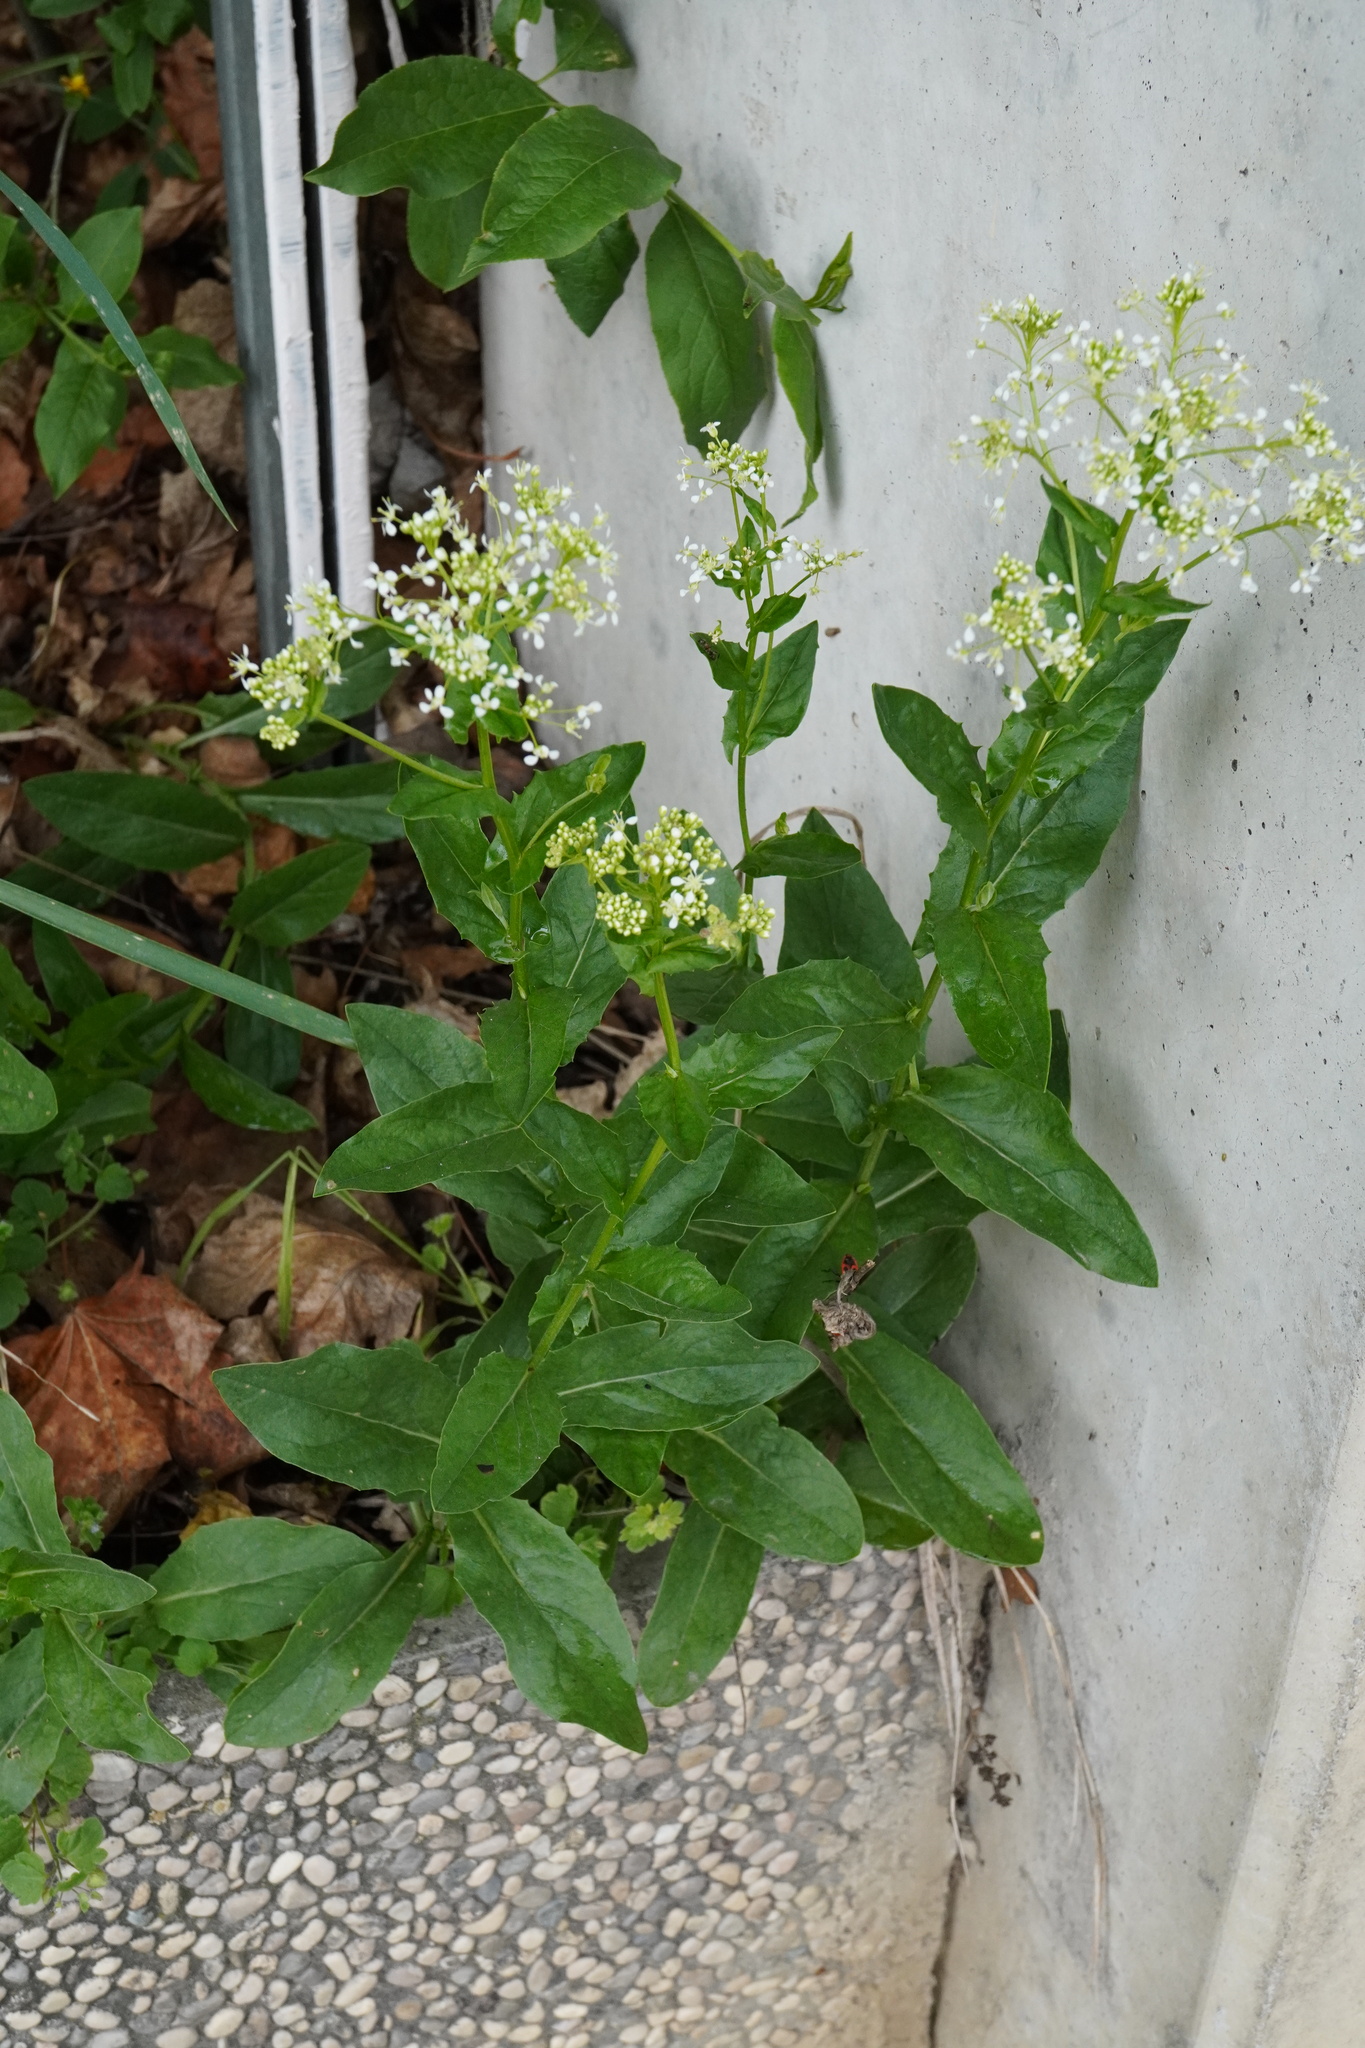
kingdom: Plantae
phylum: Tracheophyta
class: Magnoliopsida
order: Brassicales
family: Brassicaceae
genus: Lepidium
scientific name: Lepidium draba
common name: Hoary cress
